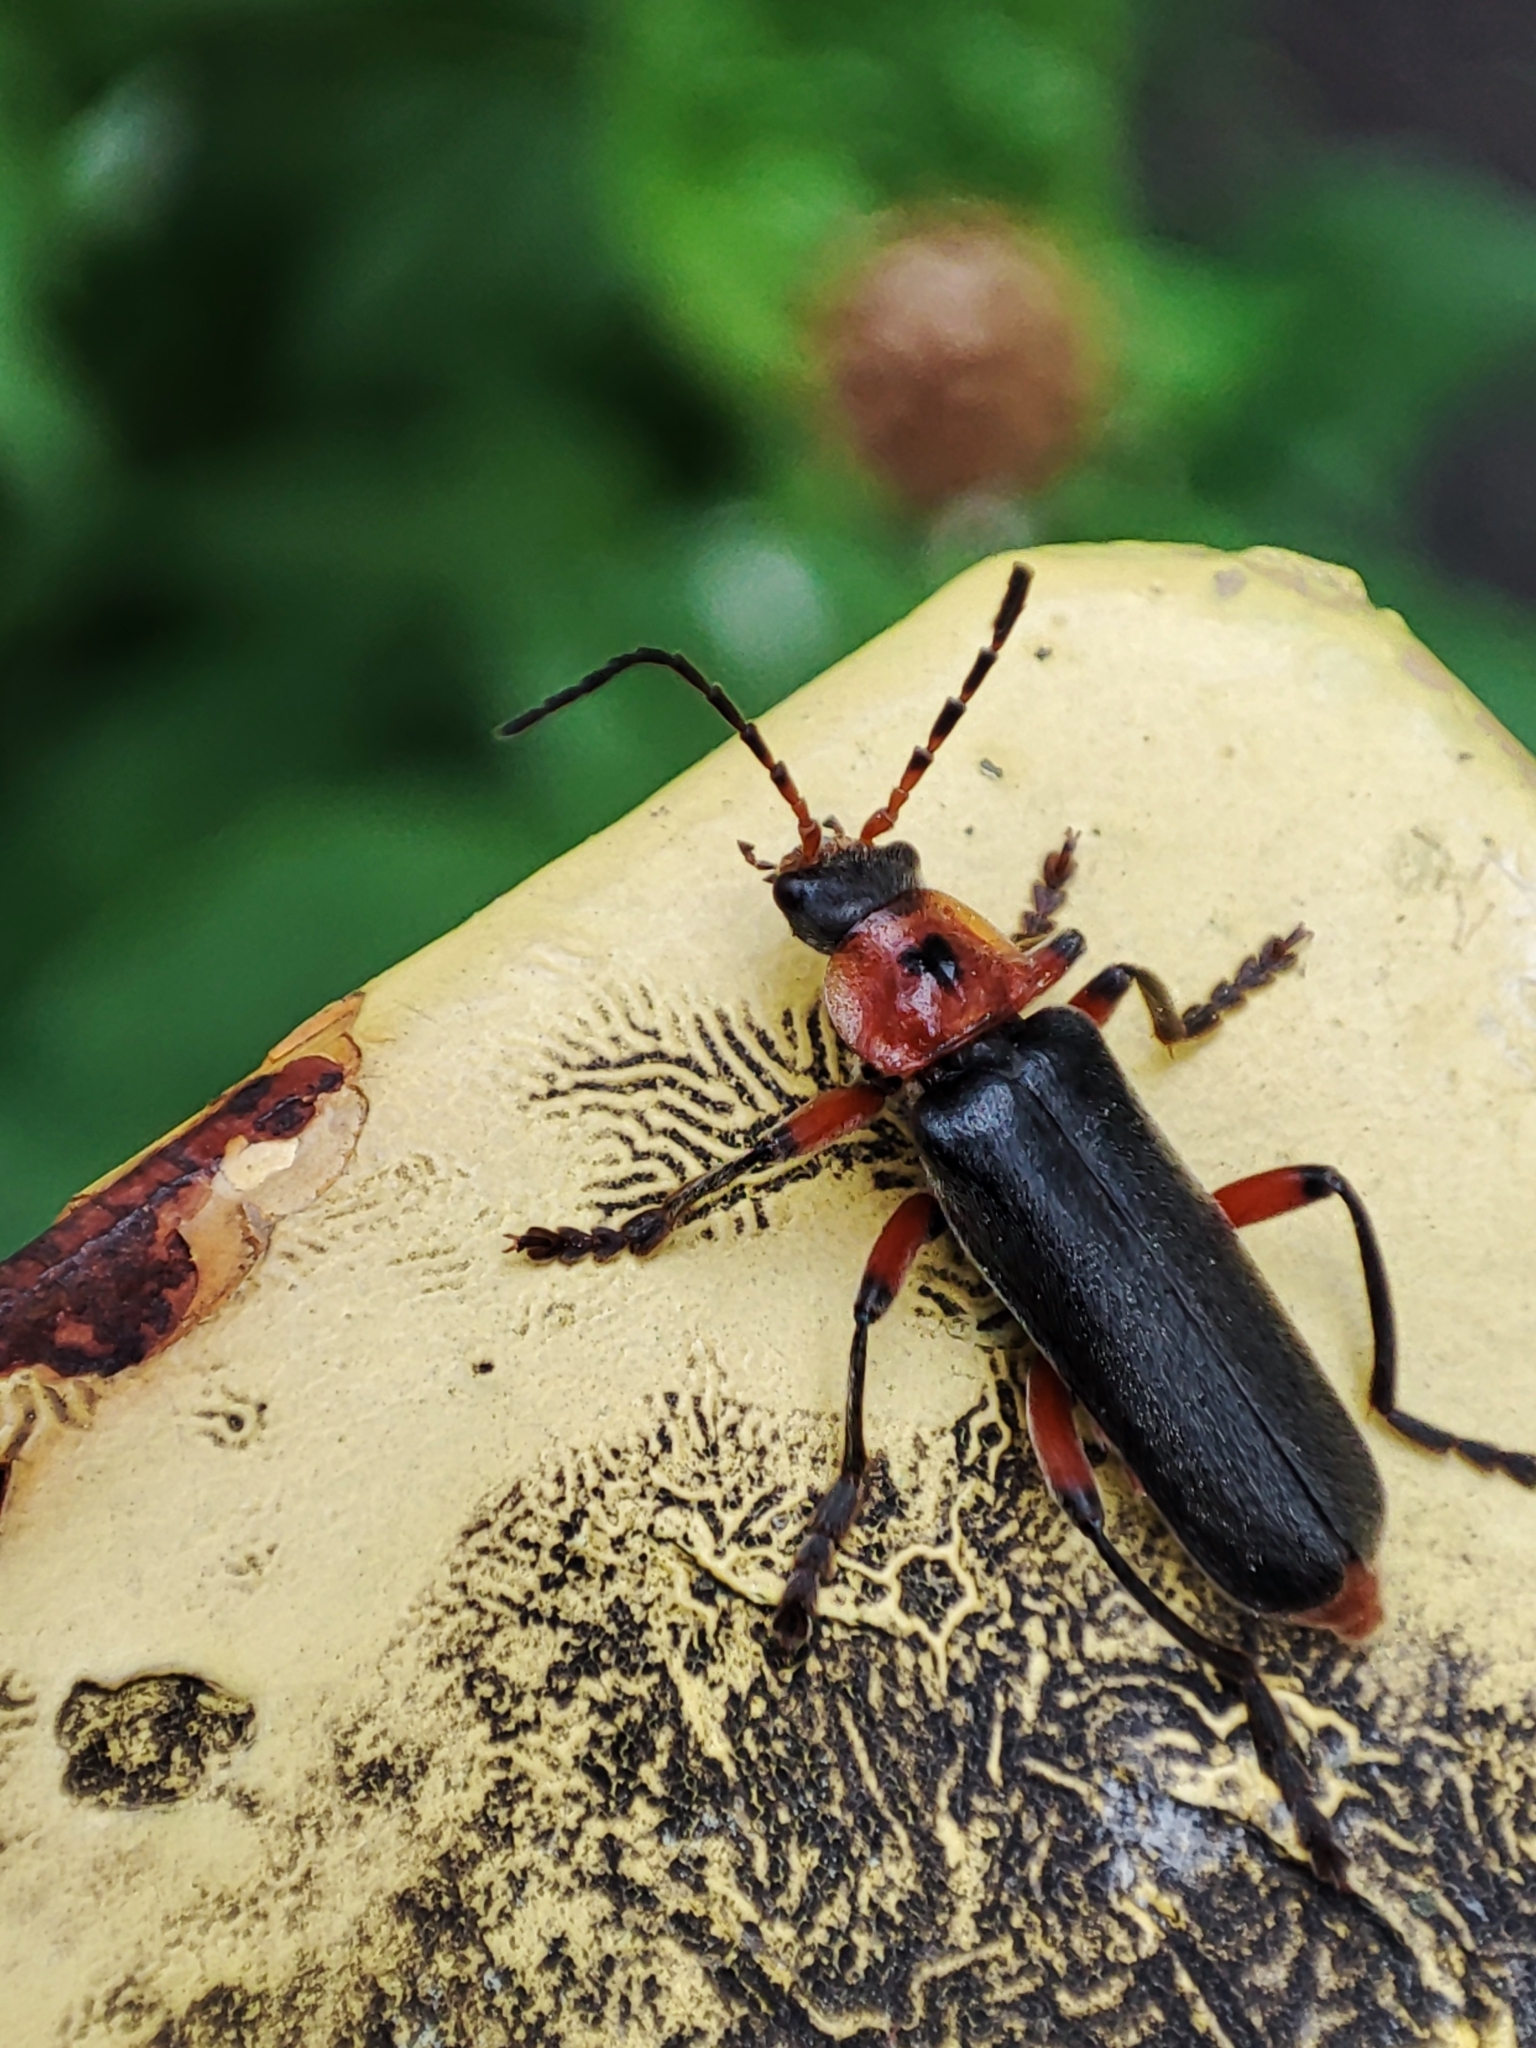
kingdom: Animalia
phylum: Arthropoda
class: Insecta
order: Coleoptera
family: Cantharidae
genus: Cantharis
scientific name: Cantharis rustica
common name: Soldier beetle
